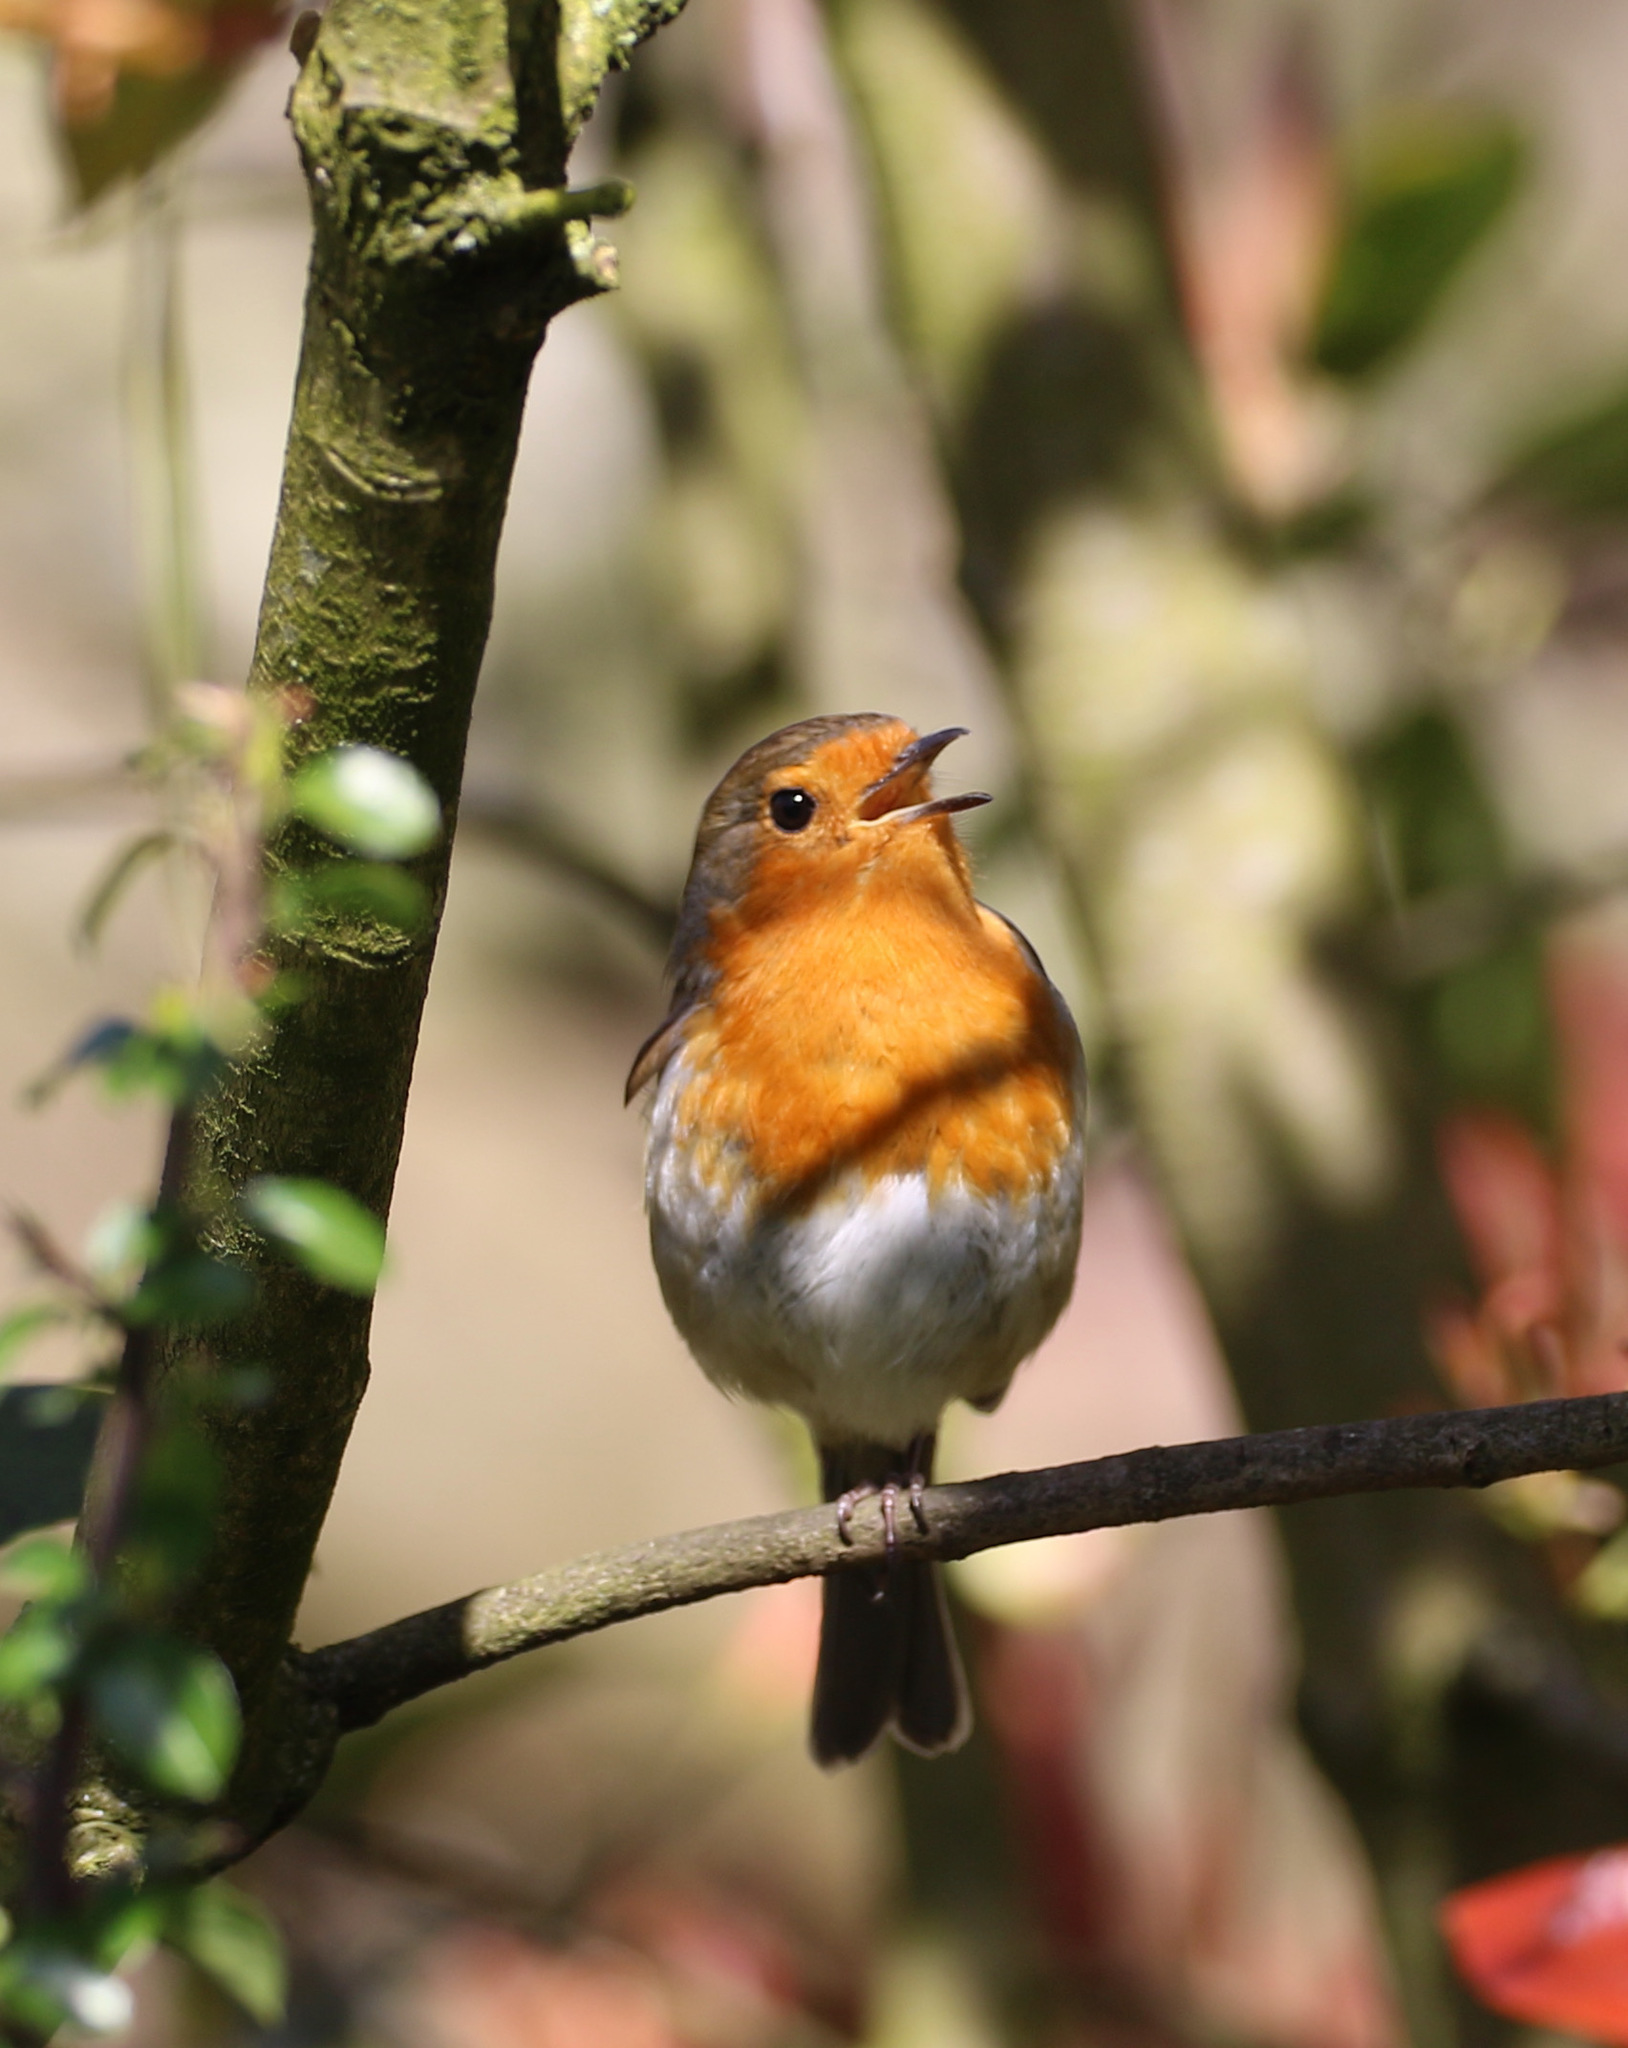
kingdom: Animalia
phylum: Chordata
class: Aves
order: Passeriformes
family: Muscicapidae
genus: Erithacus
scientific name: Erithacus rubecula
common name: European robin
